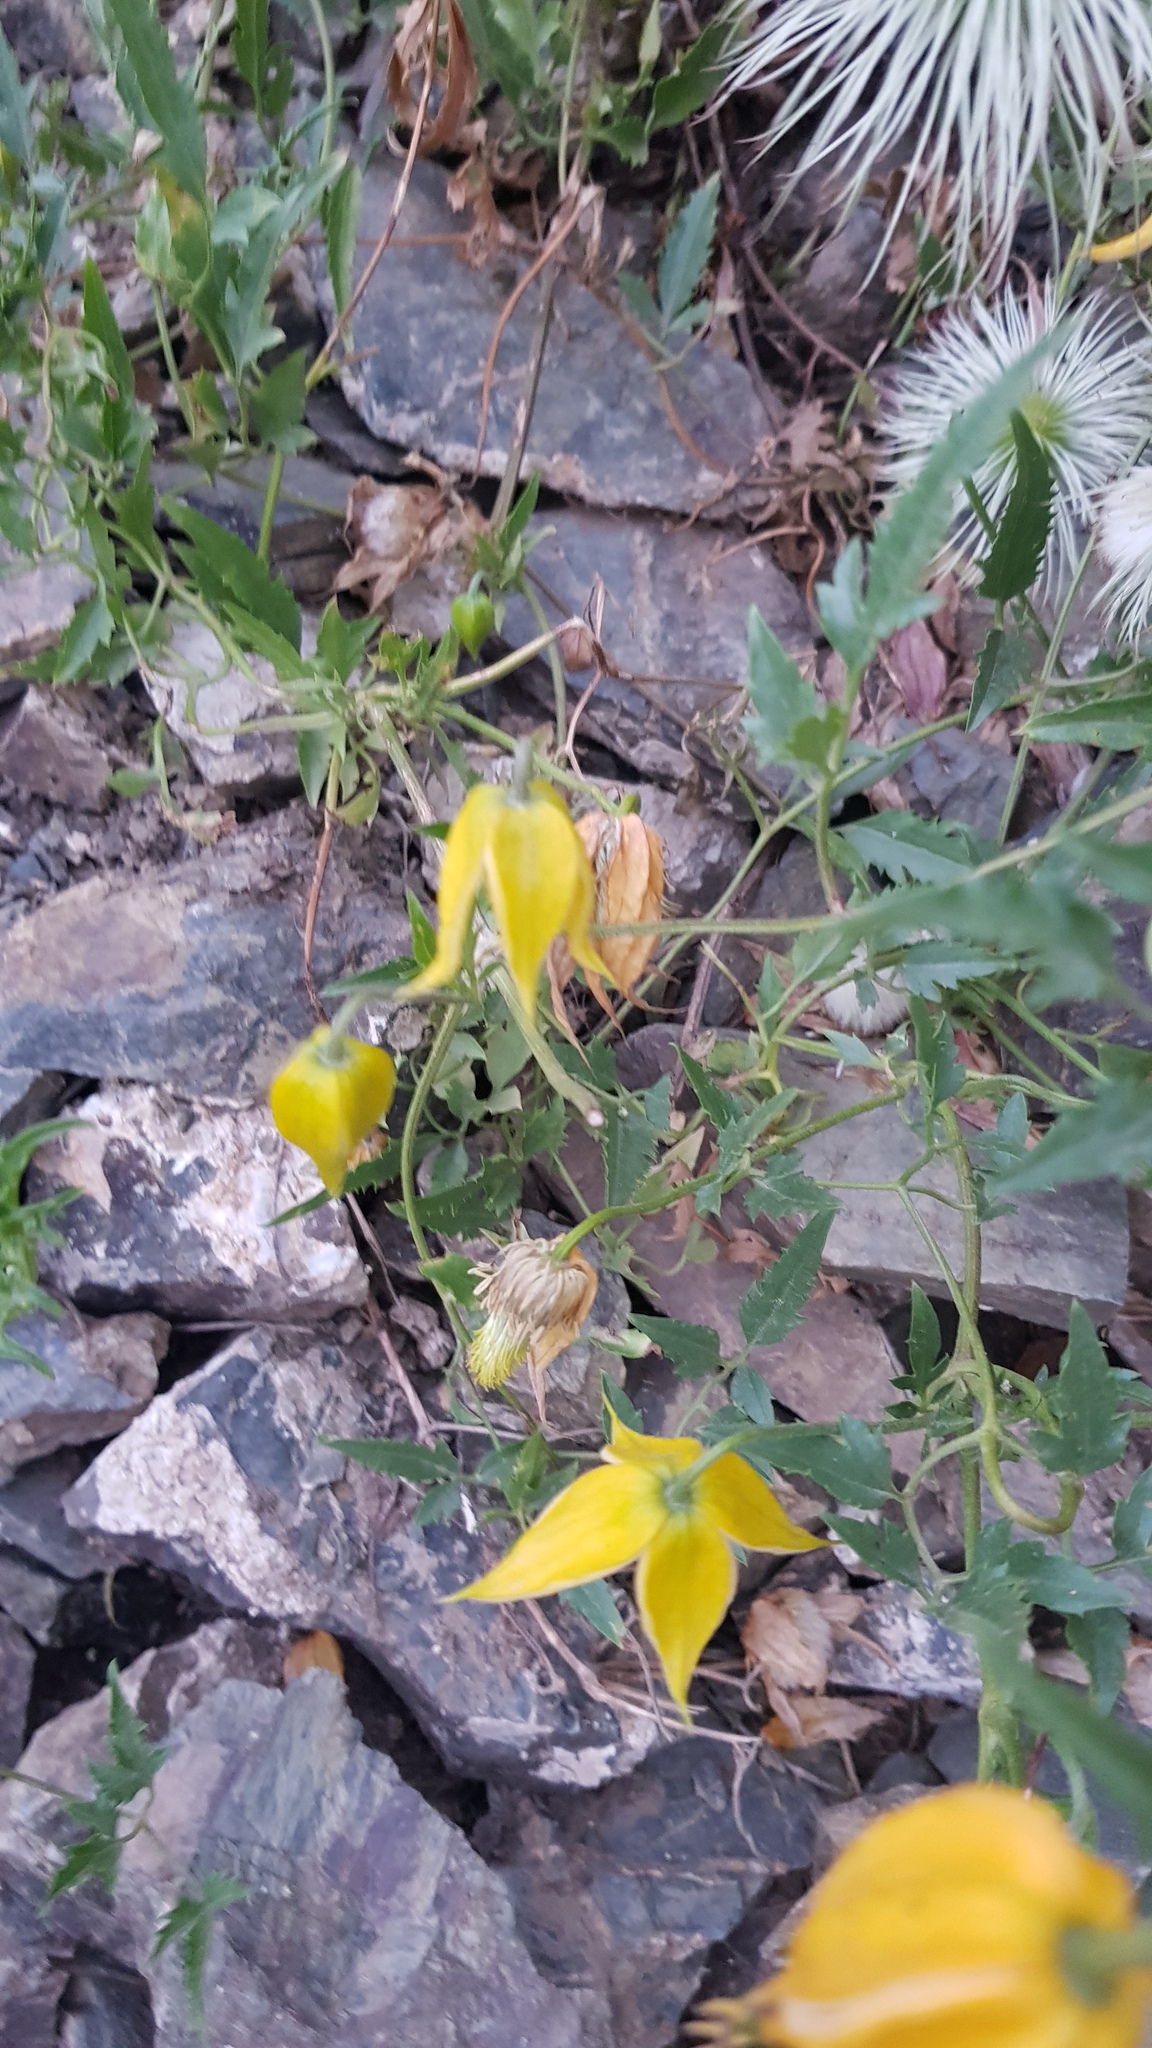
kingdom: Plantae
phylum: Tracheophyta
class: Magnoliopsida
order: Ranunculales
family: Ranunculaceae
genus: Clematis
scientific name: Clematis tangutica
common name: Orange-peel clematis
